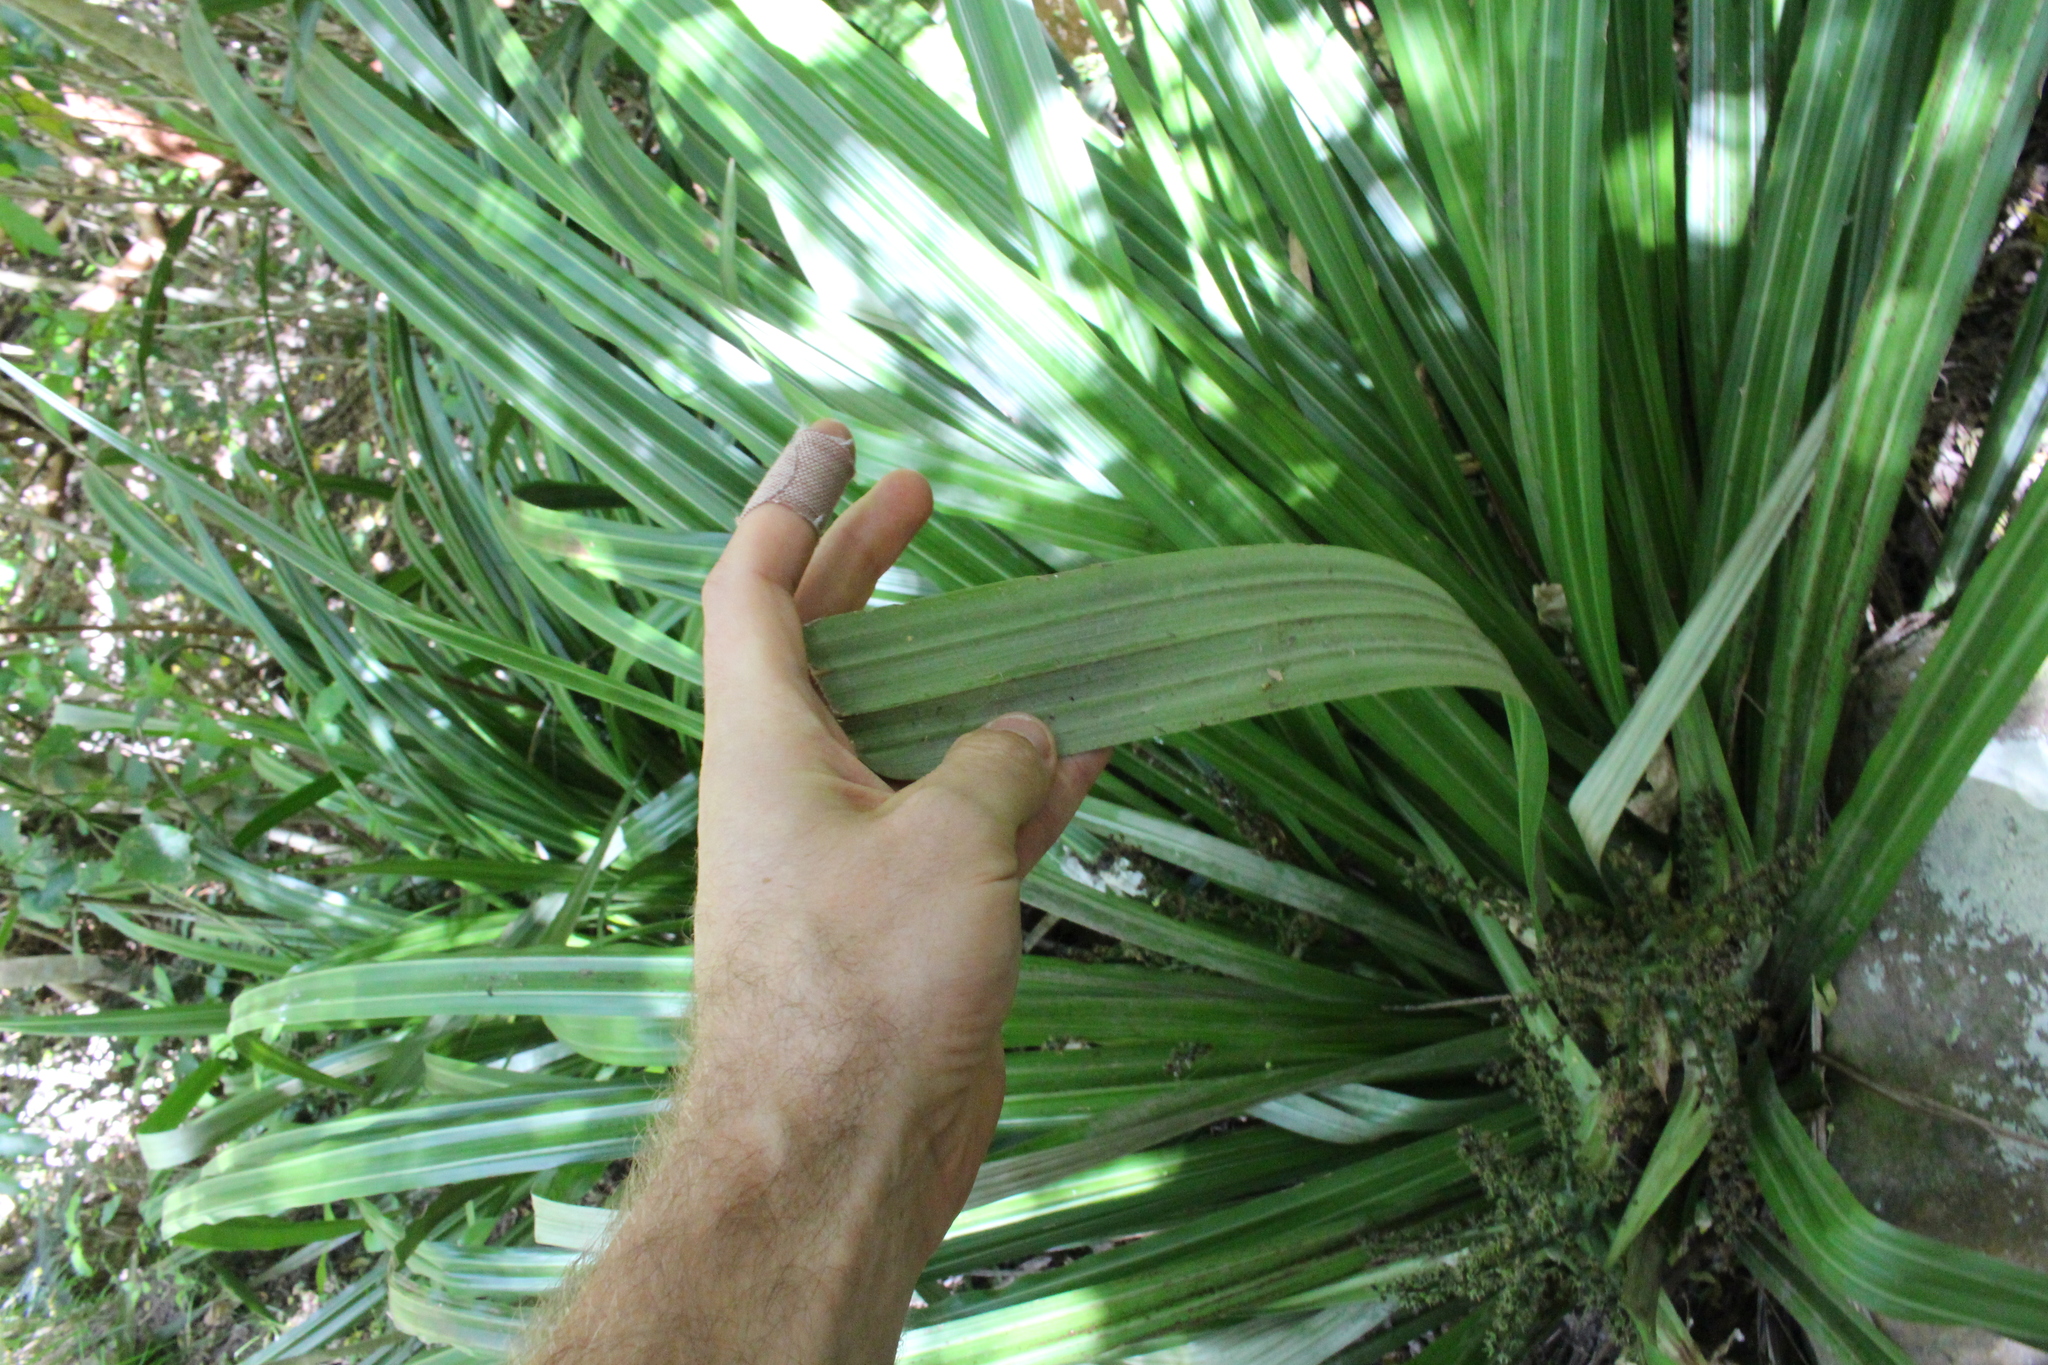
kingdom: Plantae
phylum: Tracheophyta
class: Liliopsida
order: Asparagales
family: Asteliaceae
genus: Astelia
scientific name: Astelia fragrans
